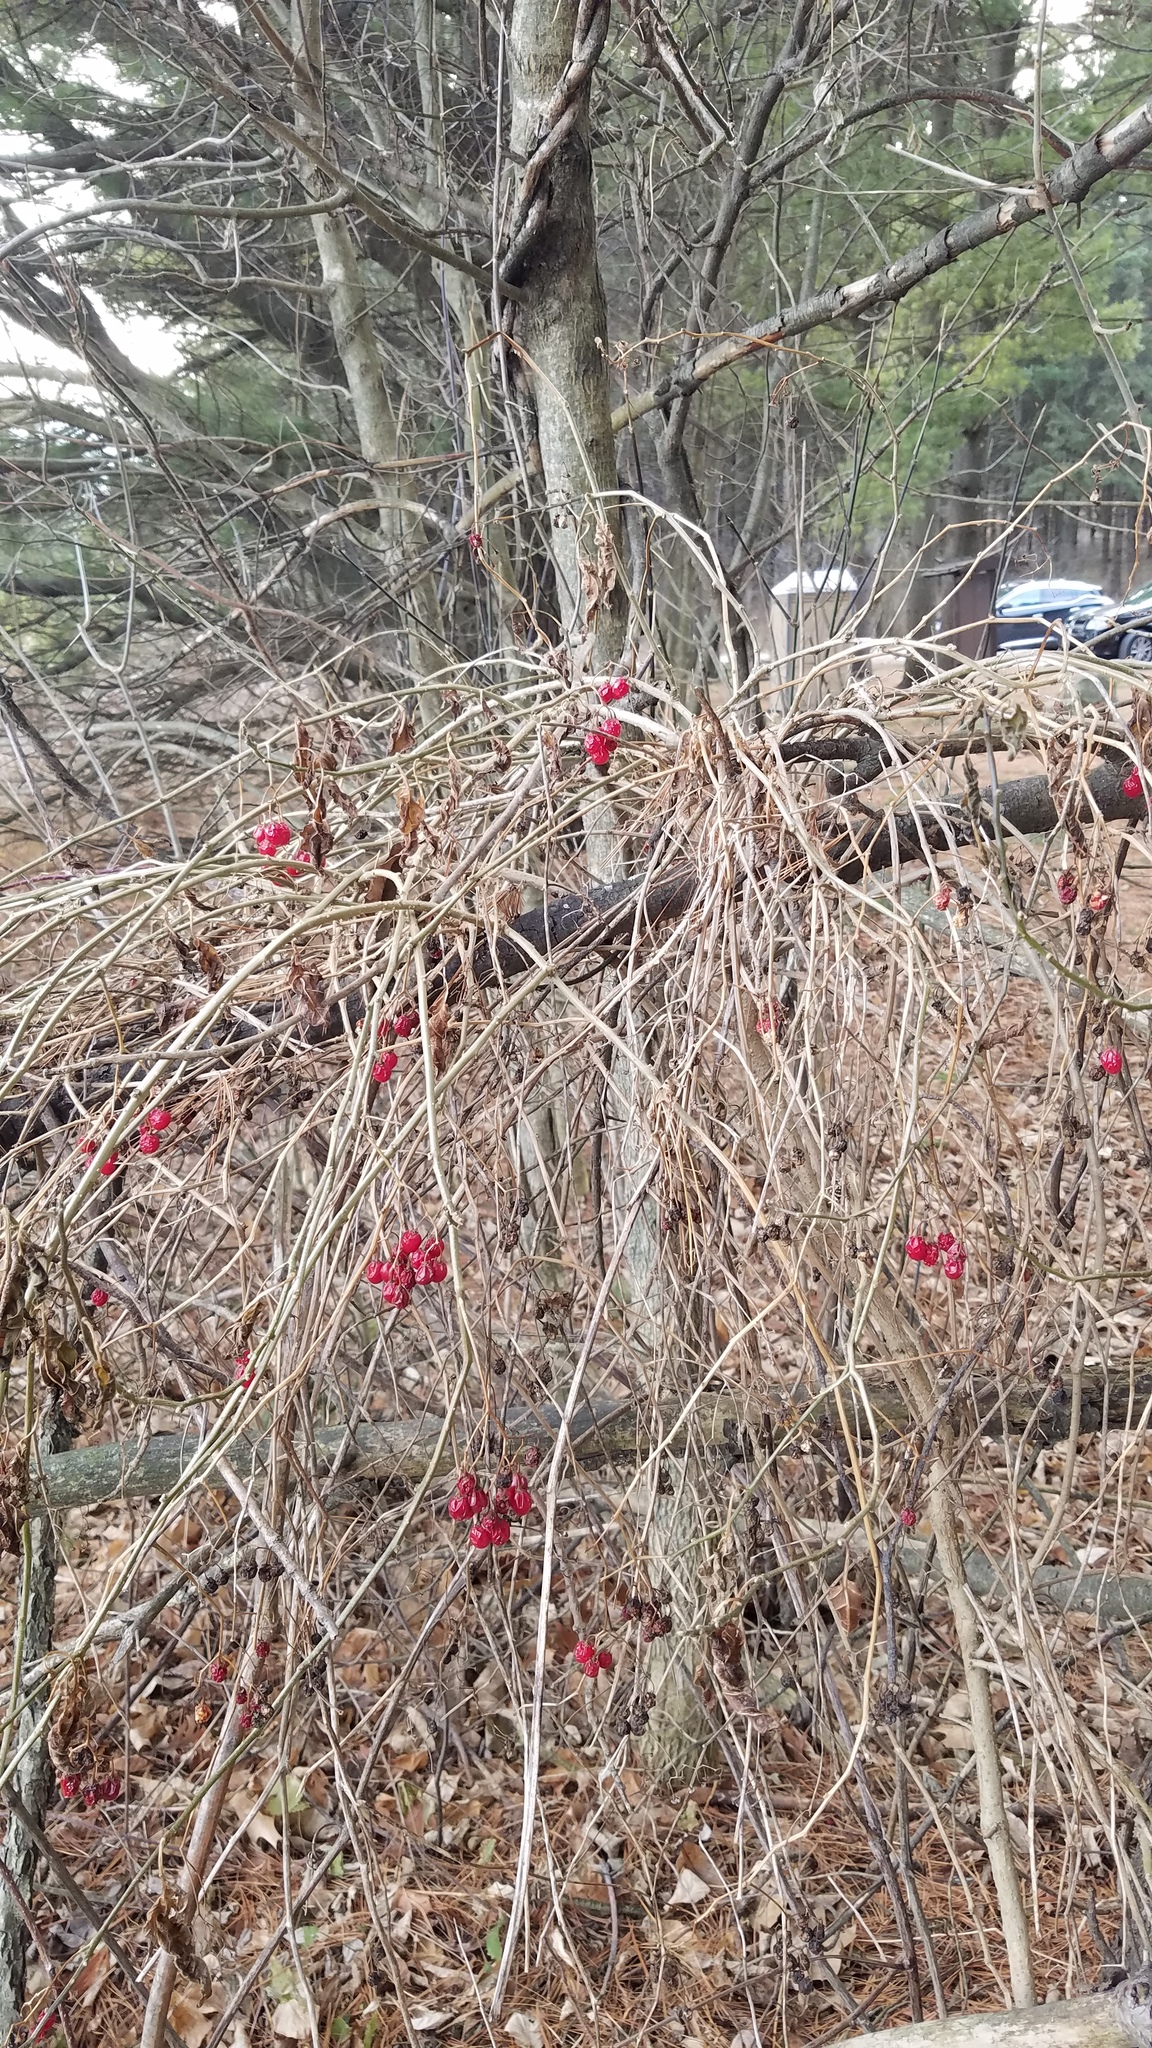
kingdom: Plantae
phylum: Tracheophyta
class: Magnoliopsida
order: Solanales
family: Solanaceae
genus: Solanum
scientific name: Solanum dulcamara
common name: Climbing nightshade
